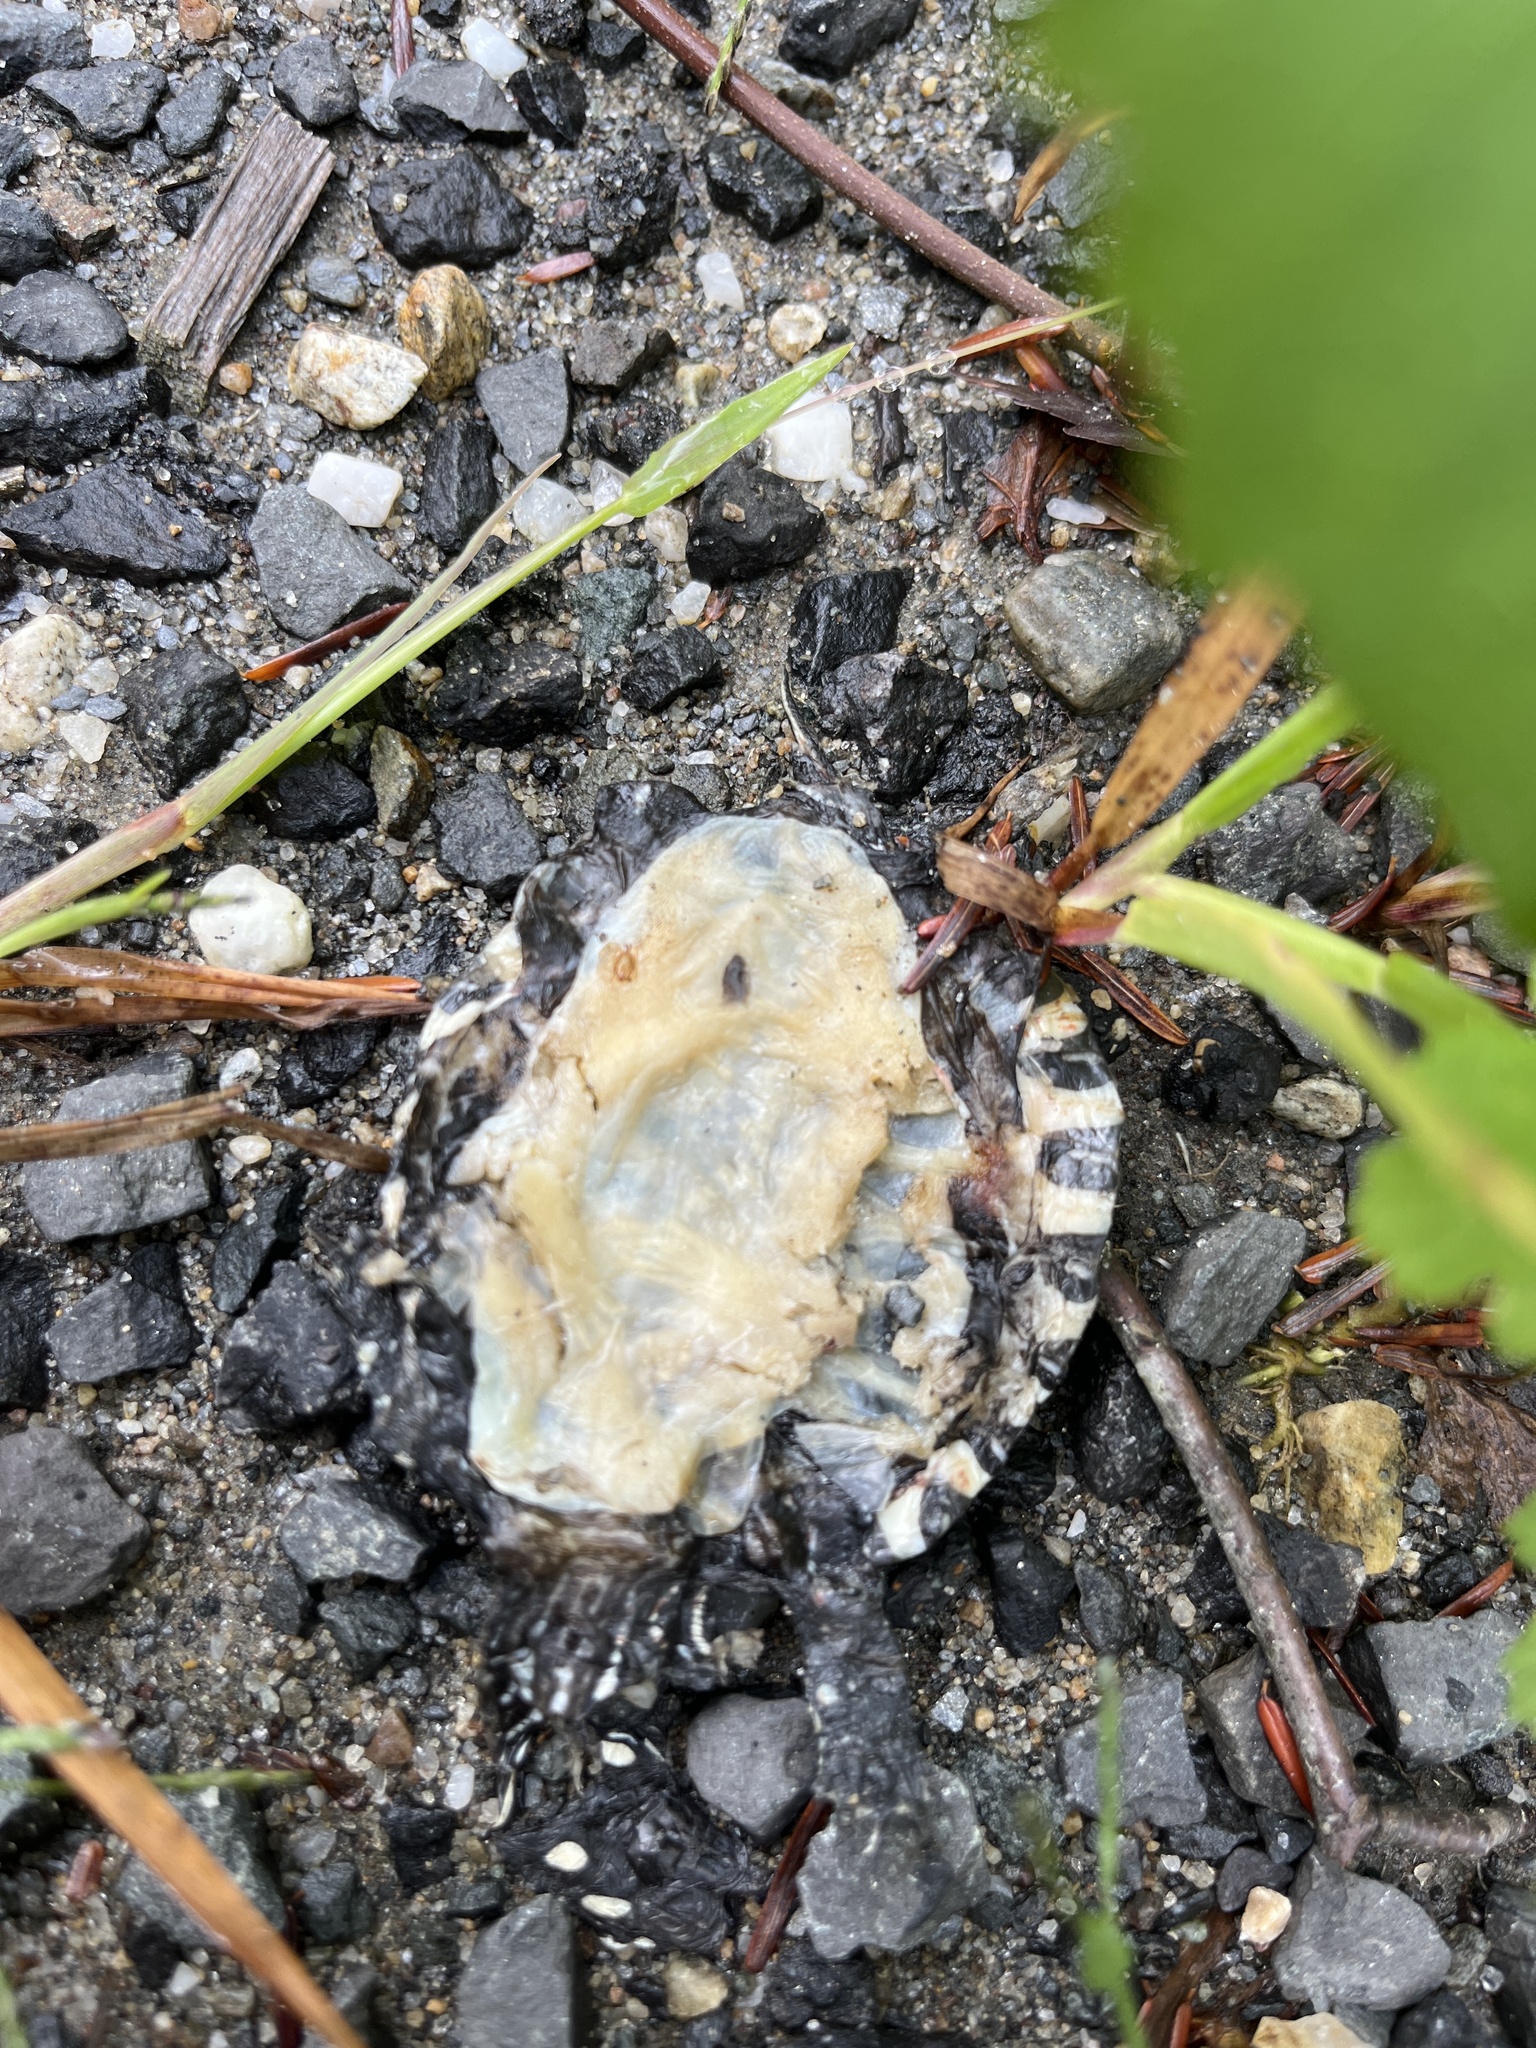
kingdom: Animalia
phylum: Chordata
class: Testudines
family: Emydidae
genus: Chrysemys
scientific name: Chrysemys picta
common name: Painted turtle
